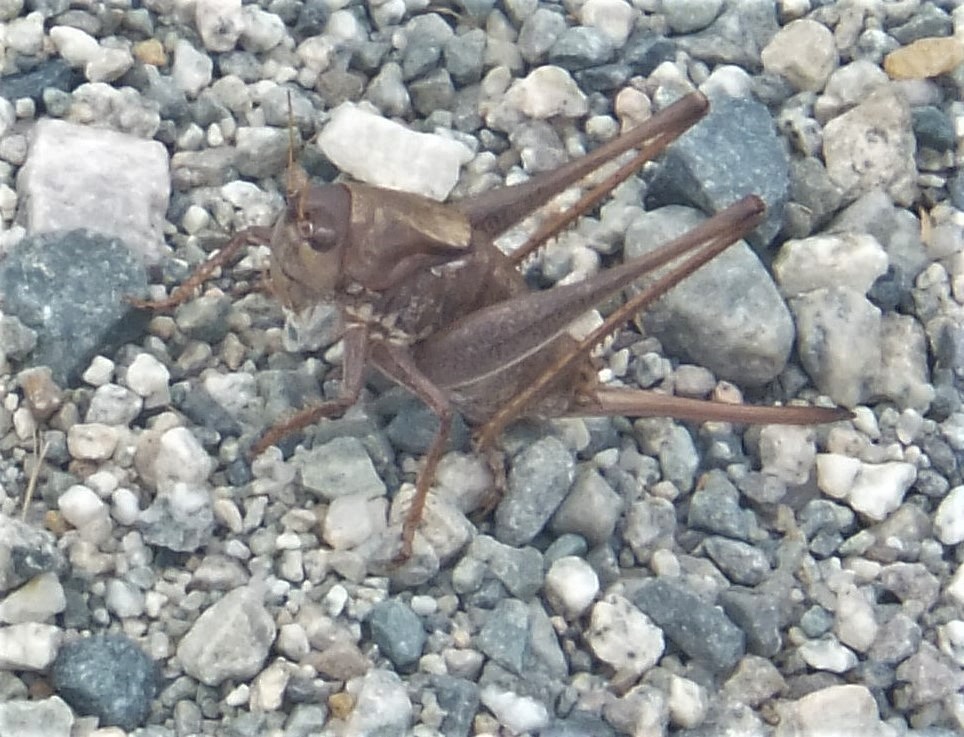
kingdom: Animalia
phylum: Arthropoda
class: Insecta
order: Orthoptera
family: Tettigoniidae
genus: Anabrus
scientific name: Anabrus longipes
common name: Long-legged anabrus
